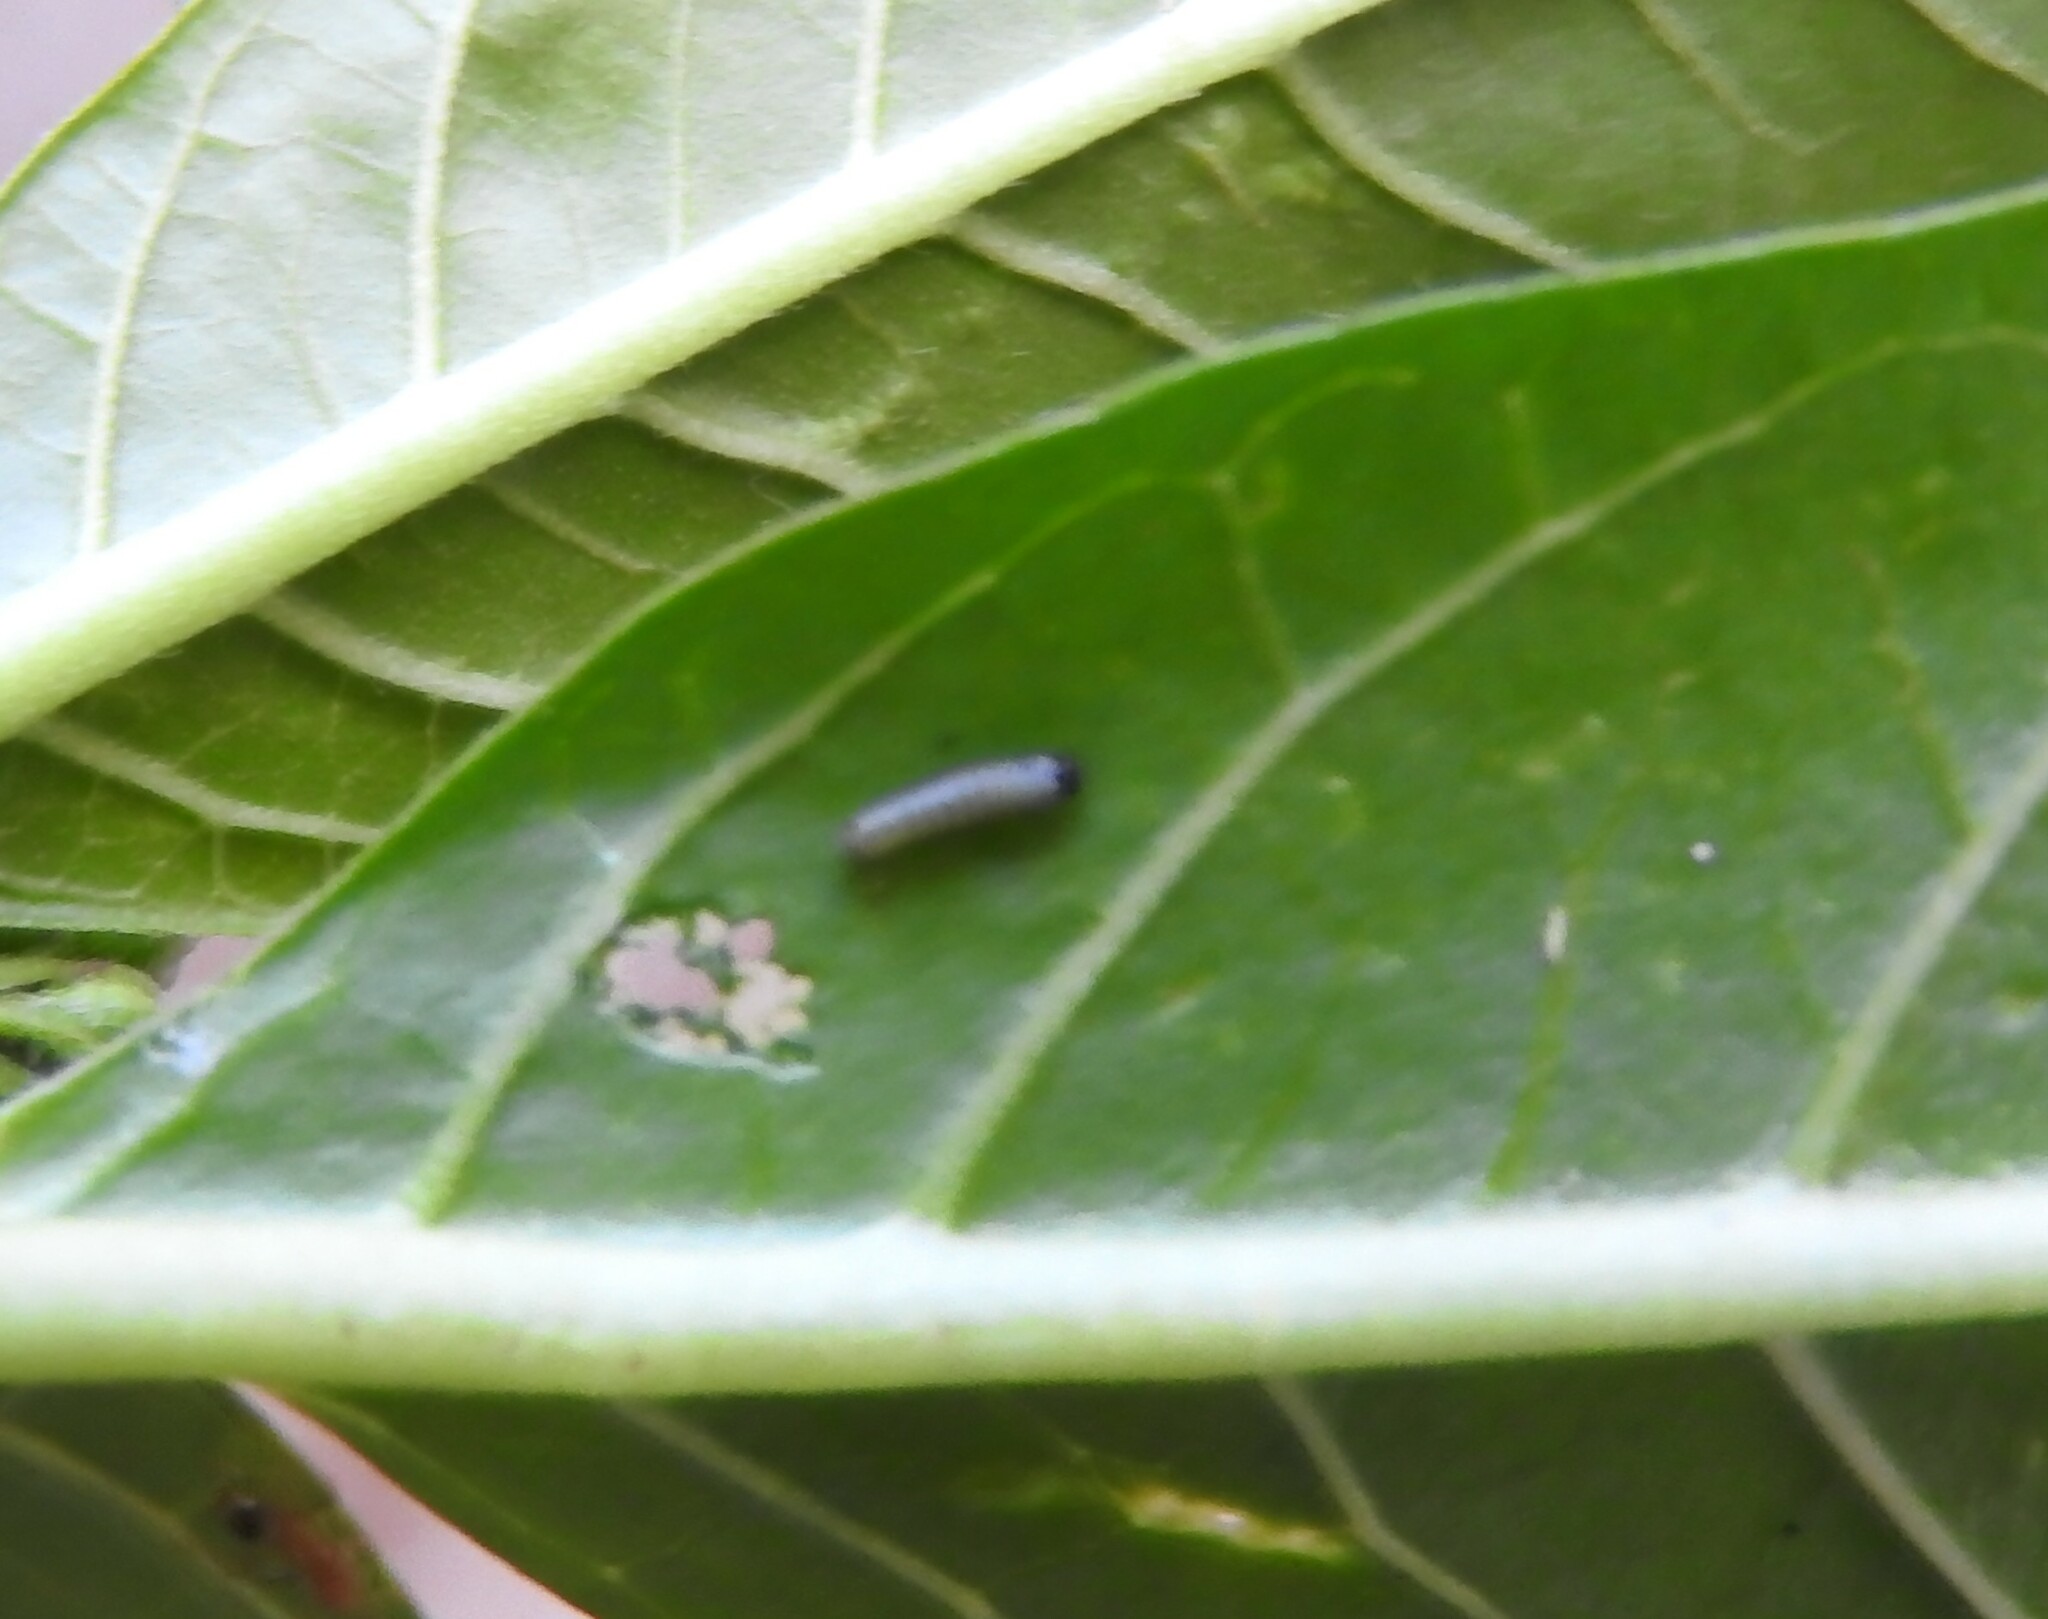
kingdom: Animalia
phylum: Arthropoda
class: Insecta
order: Lepidoptera
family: Nymphalidae
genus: Danaus
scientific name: Danaus plexippus
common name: Monarch
